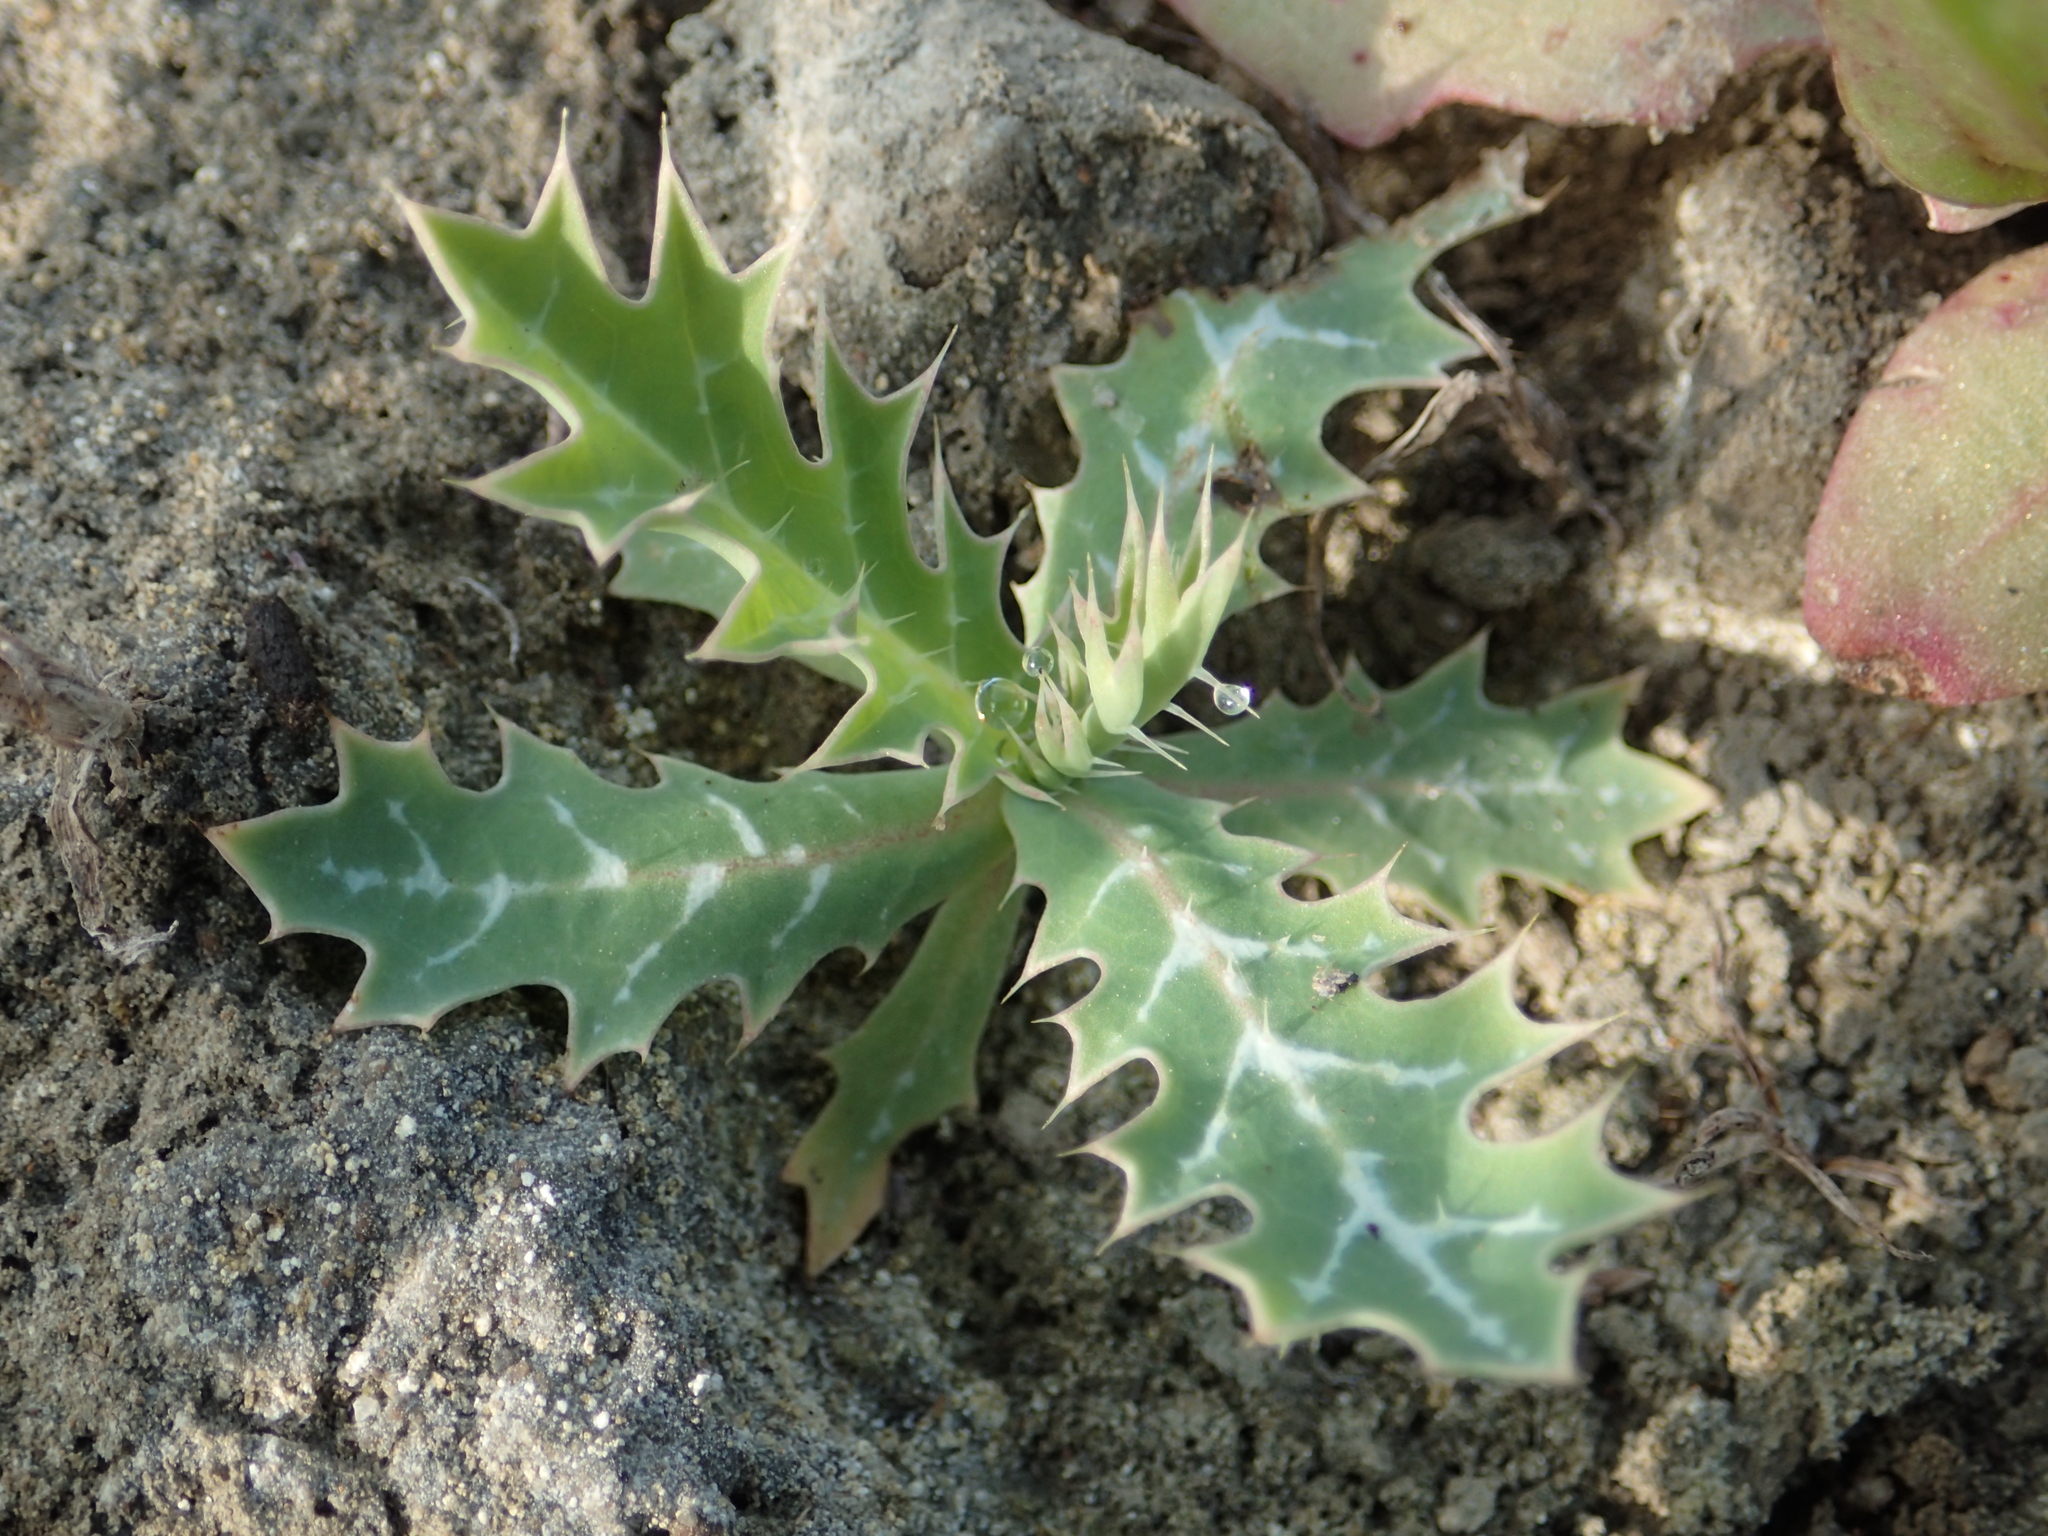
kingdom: Plantae
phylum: Tracheophyta
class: Magnoliopsida
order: Ranunculales
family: Papaveraceae
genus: Argemone
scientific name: Argemone mexicana
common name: Mexican poppy
